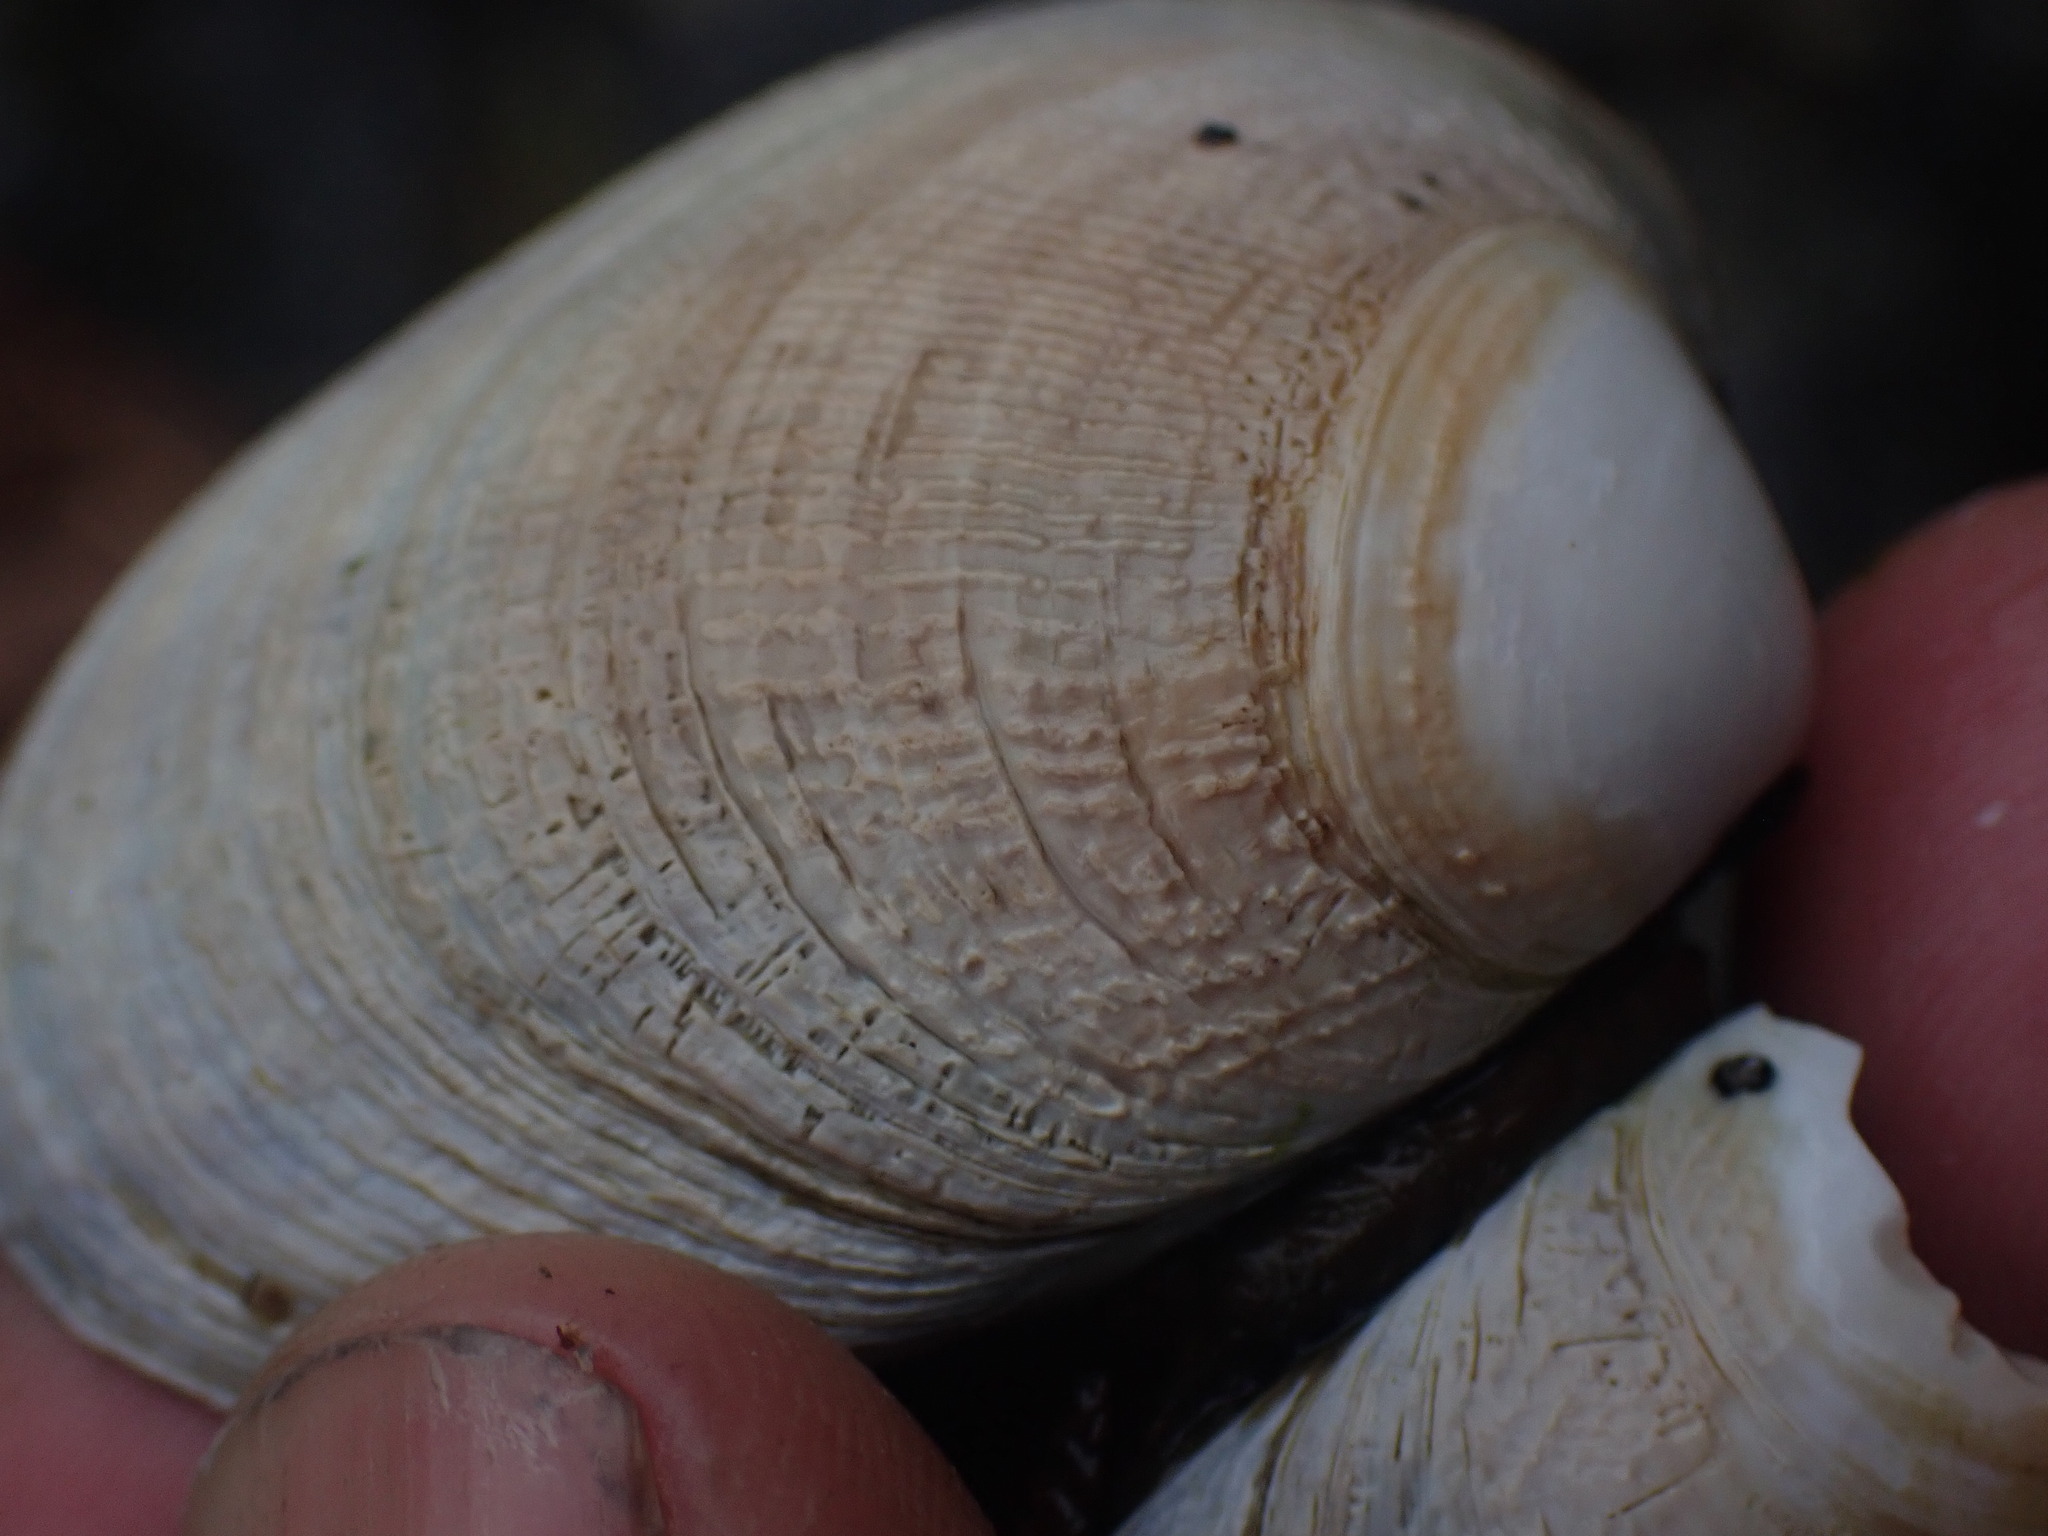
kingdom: Animalia
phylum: Mollusca
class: Bivalvia
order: Venerida
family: Veneridae
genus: Ruditapes
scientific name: Ruditapes philippinarum
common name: Manila clam
